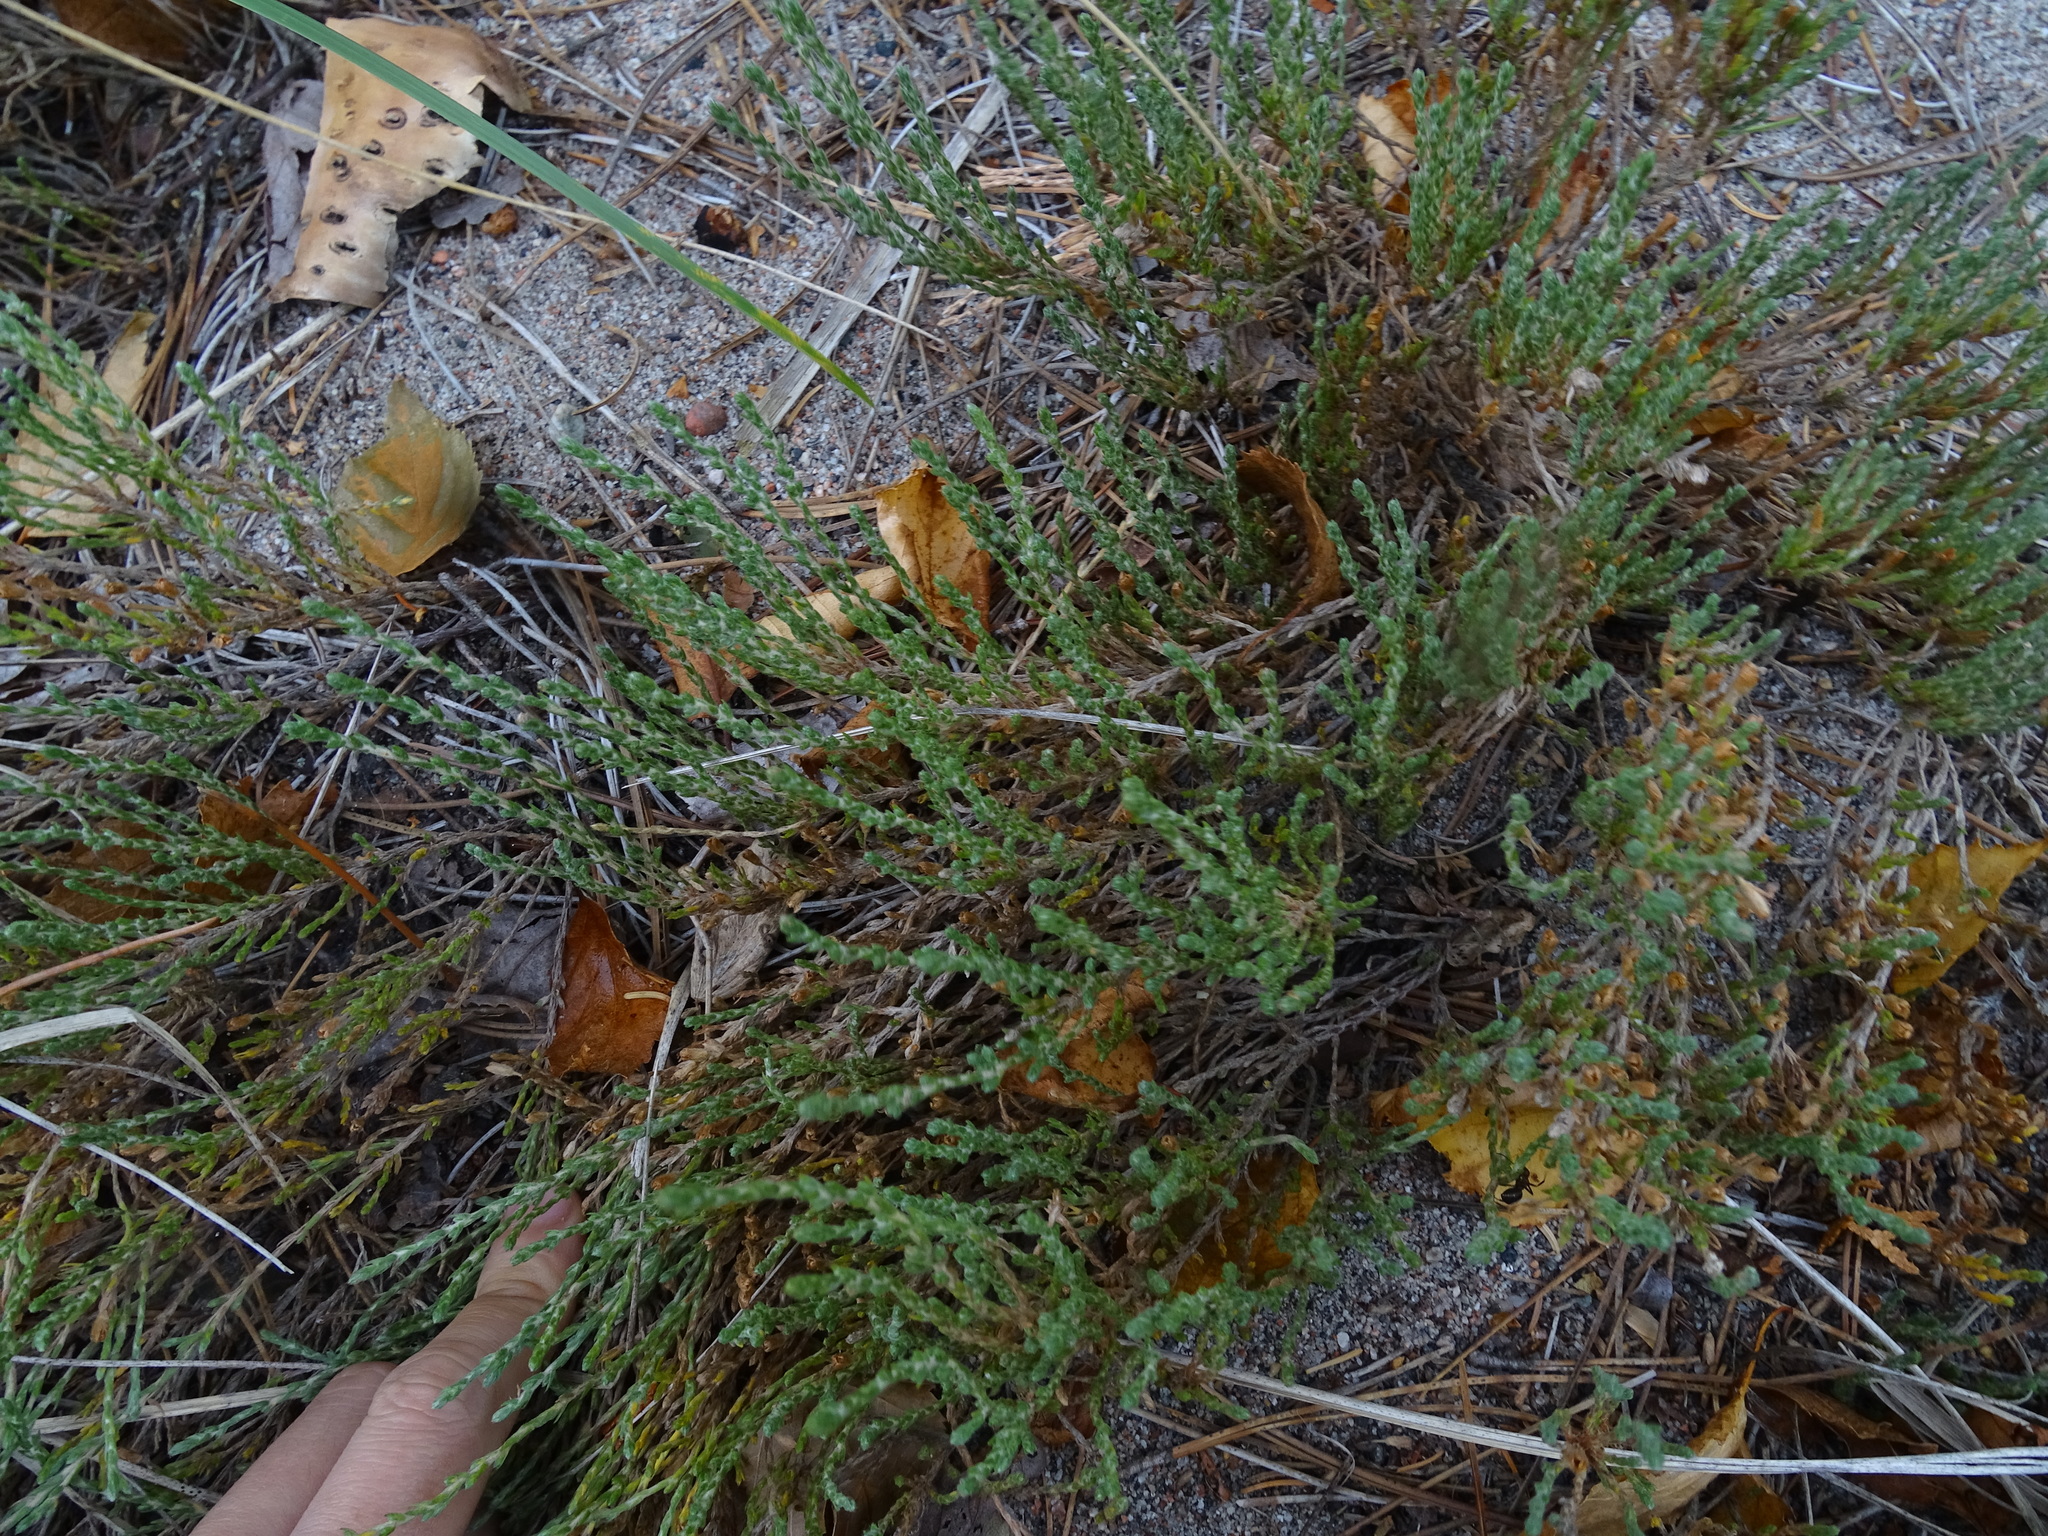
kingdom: Plantae
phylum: Tracheophyta
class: Magnoliopsida
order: Malvales
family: Cistaceae
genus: Hudsonia
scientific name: Hudsonia tomentosa
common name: Beach-heath
